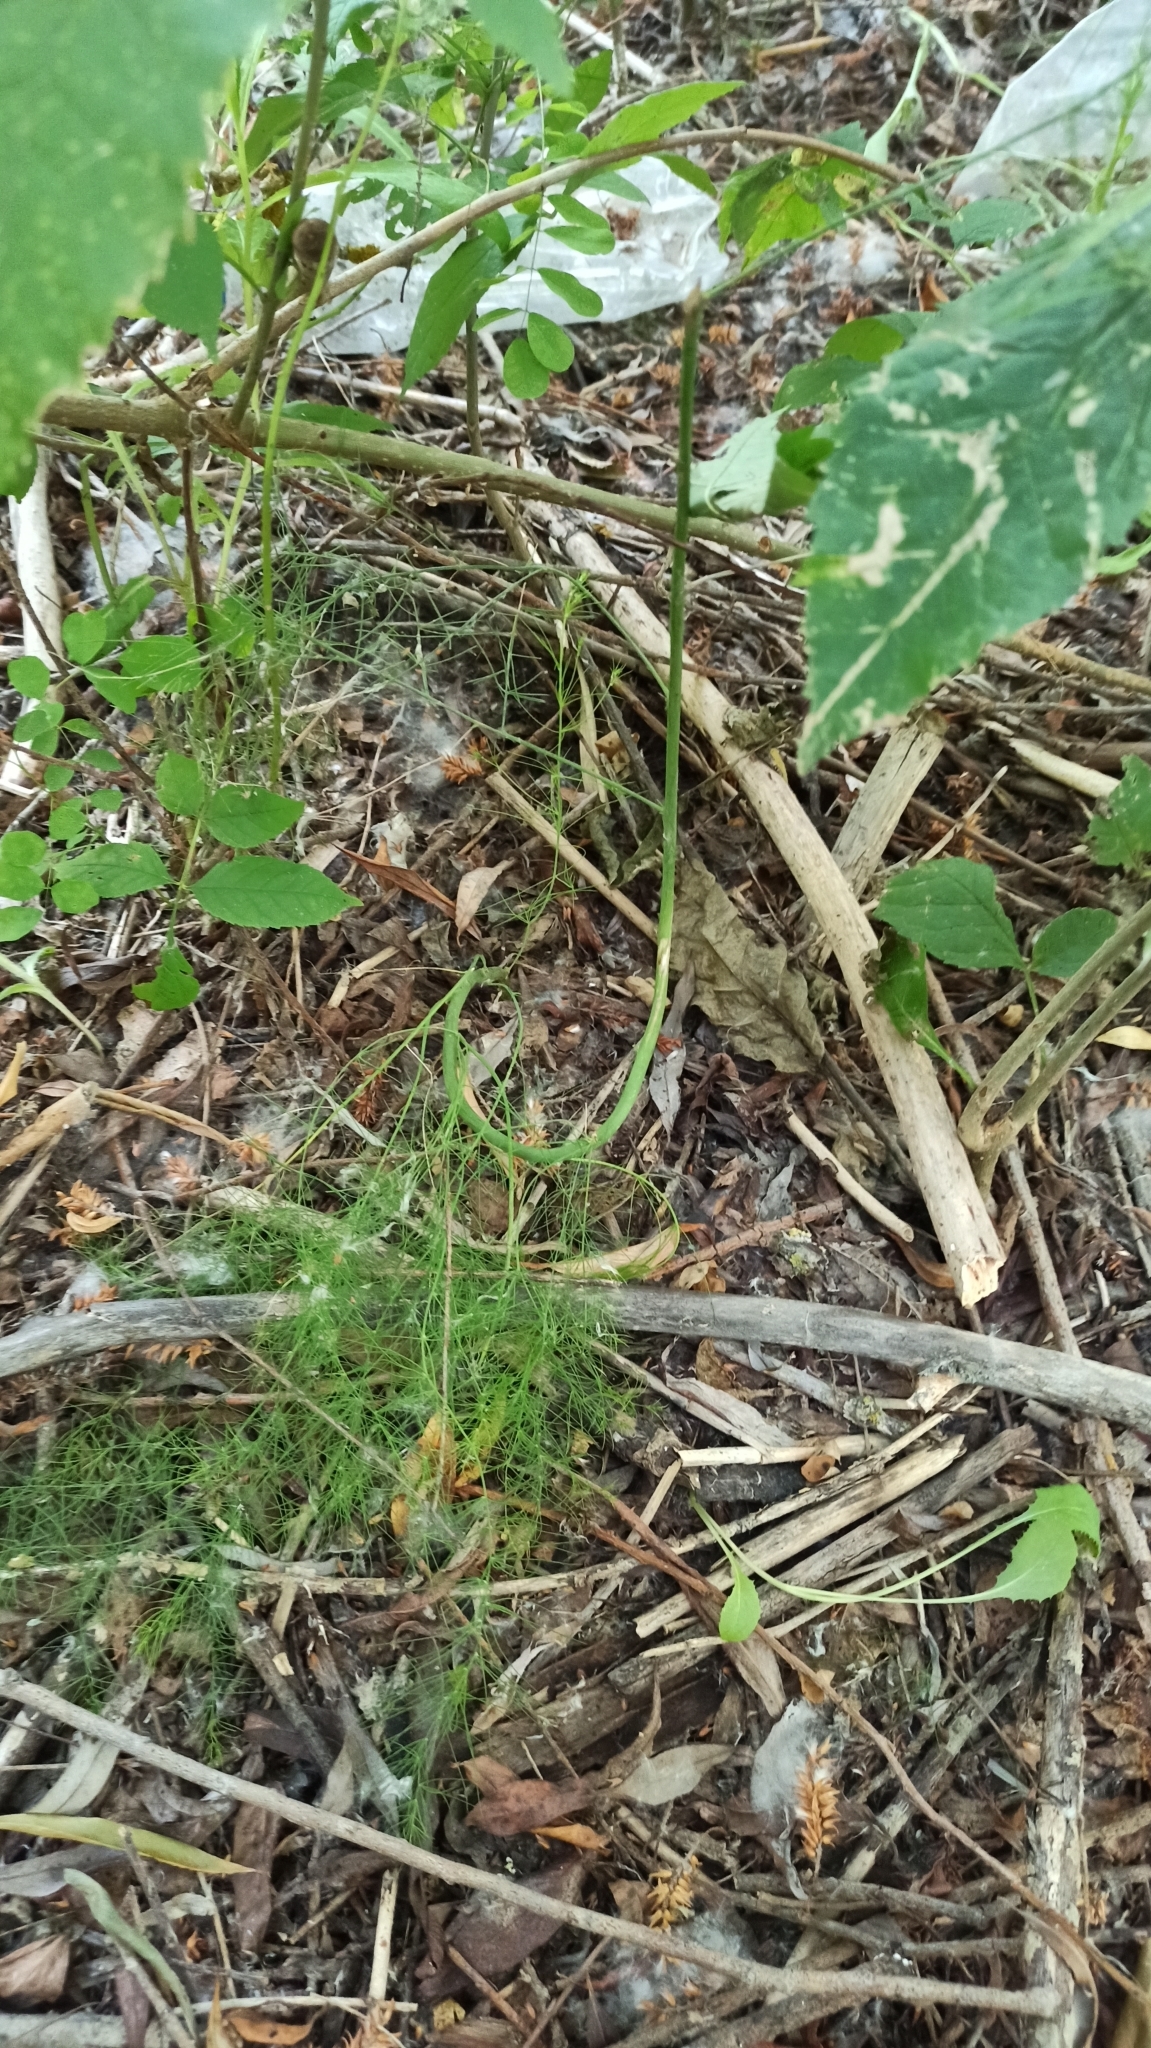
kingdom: Plantae
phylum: Tracheophyta
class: Liliopsida
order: Asparagales
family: Asparagaceae
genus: Asparagus
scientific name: Asparagus officinalis
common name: Garden asparagus
